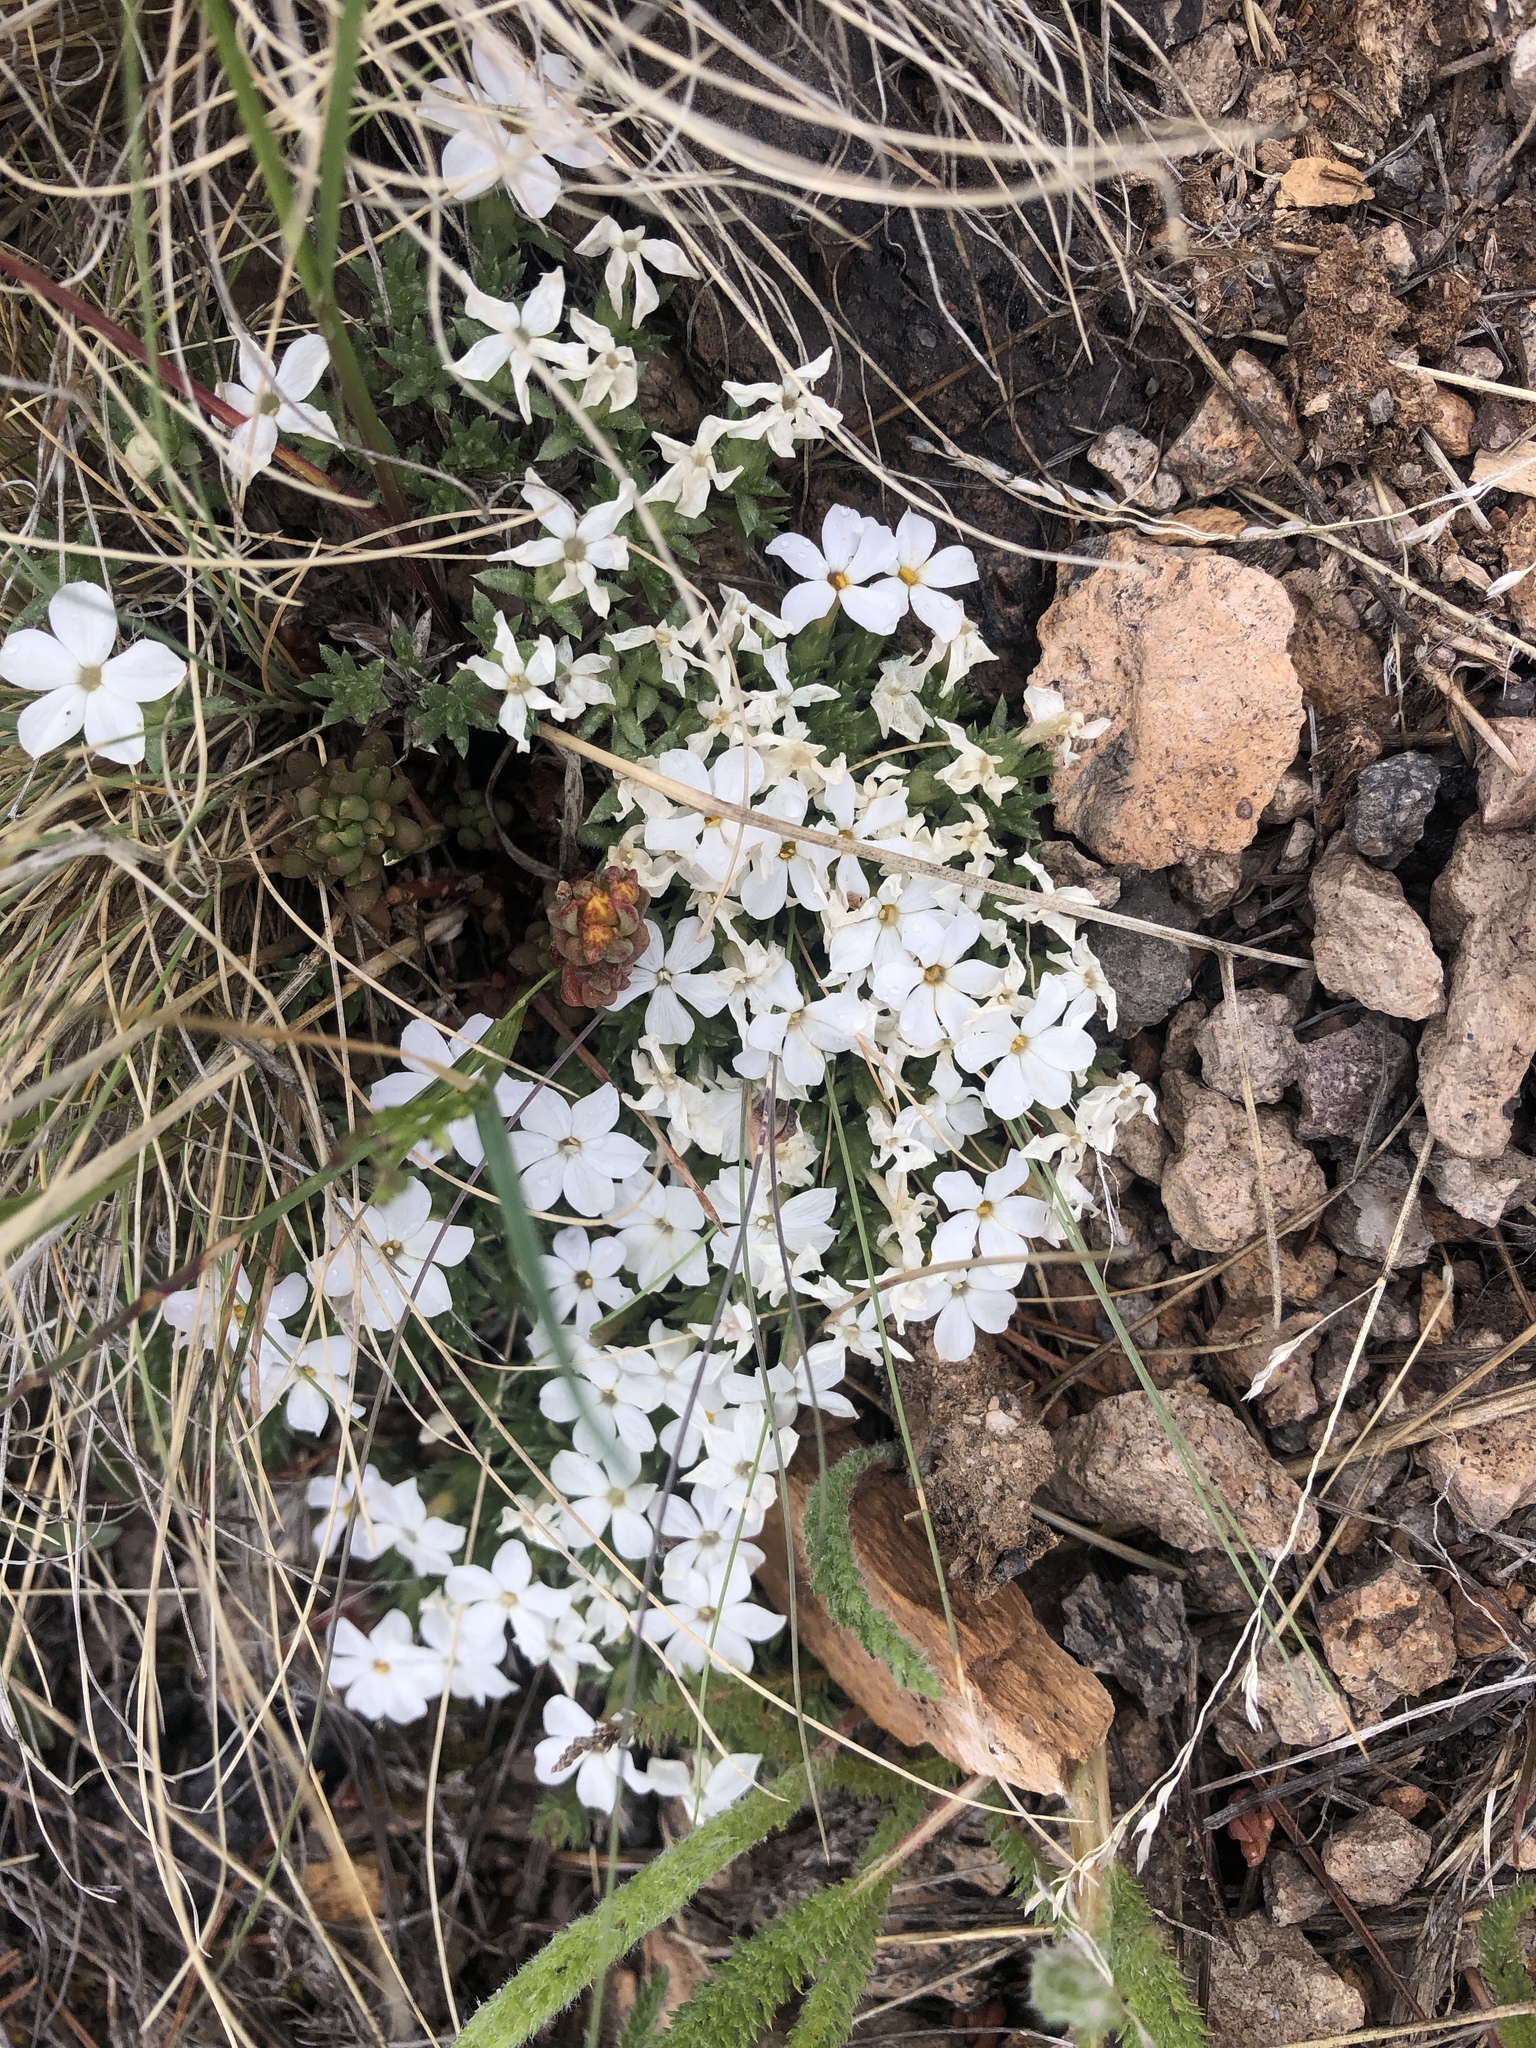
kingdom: Plantae
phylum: Tracheophyta
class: Magnoliopsida
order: Ericales
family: Polemoniaceae
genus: Phlox
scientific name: Phlox condensata
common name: Compact phlox
